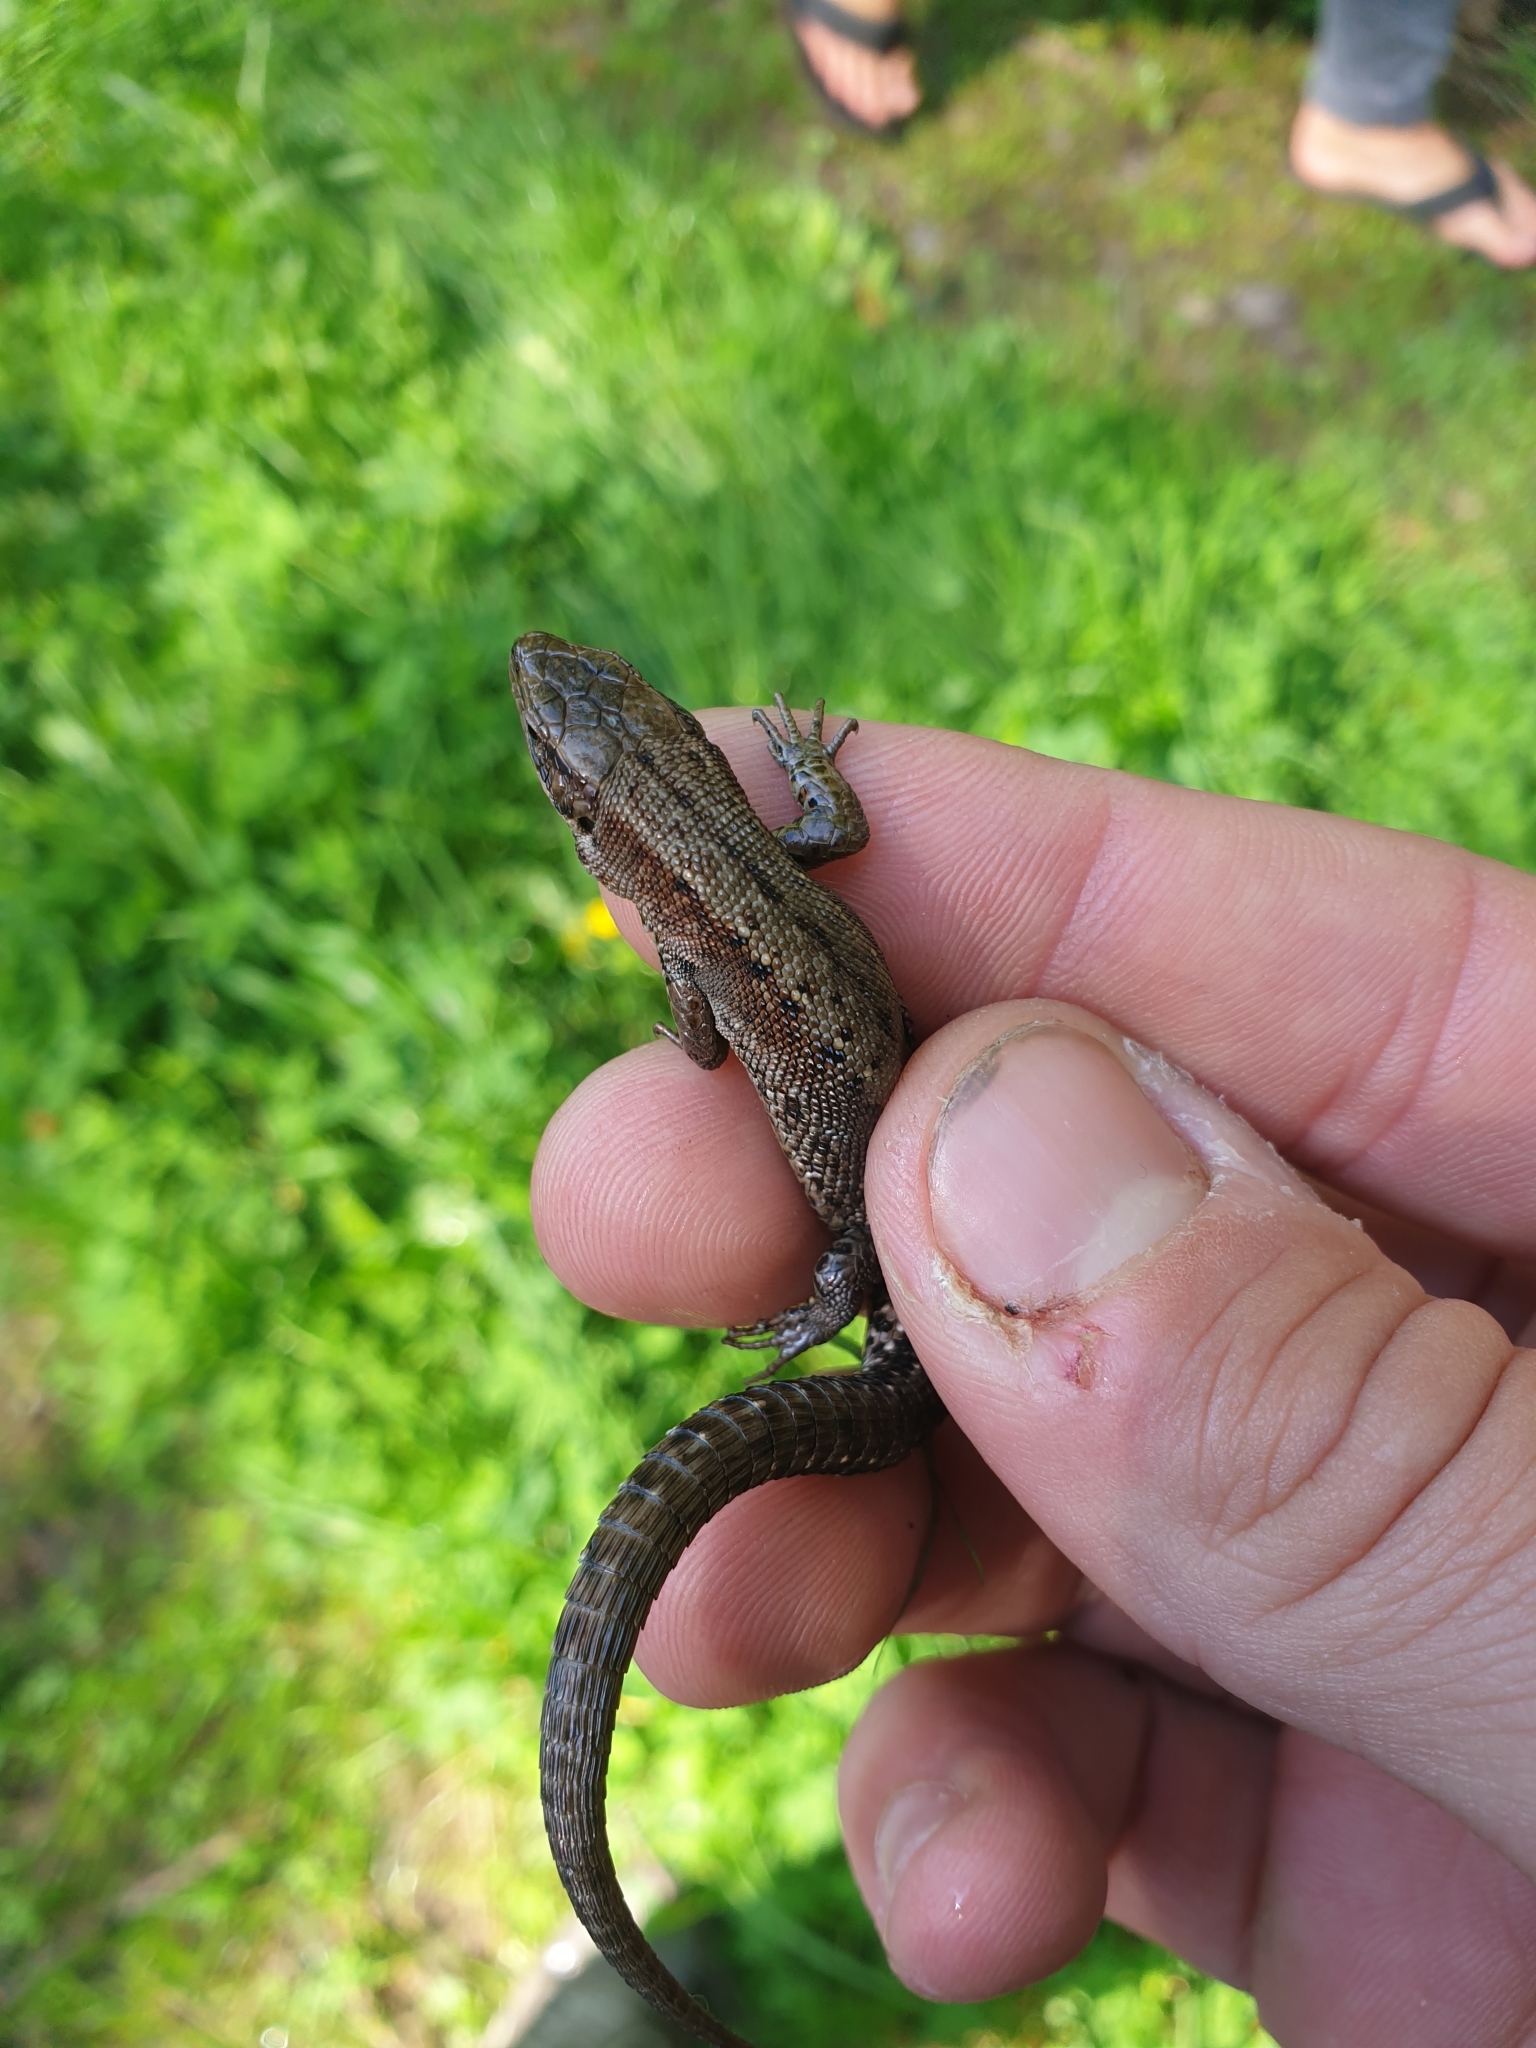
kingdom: Animalia
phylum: Chordata
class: Squamata
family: Lacertidae
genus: Zootoca
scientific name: Zootoca vivipara
